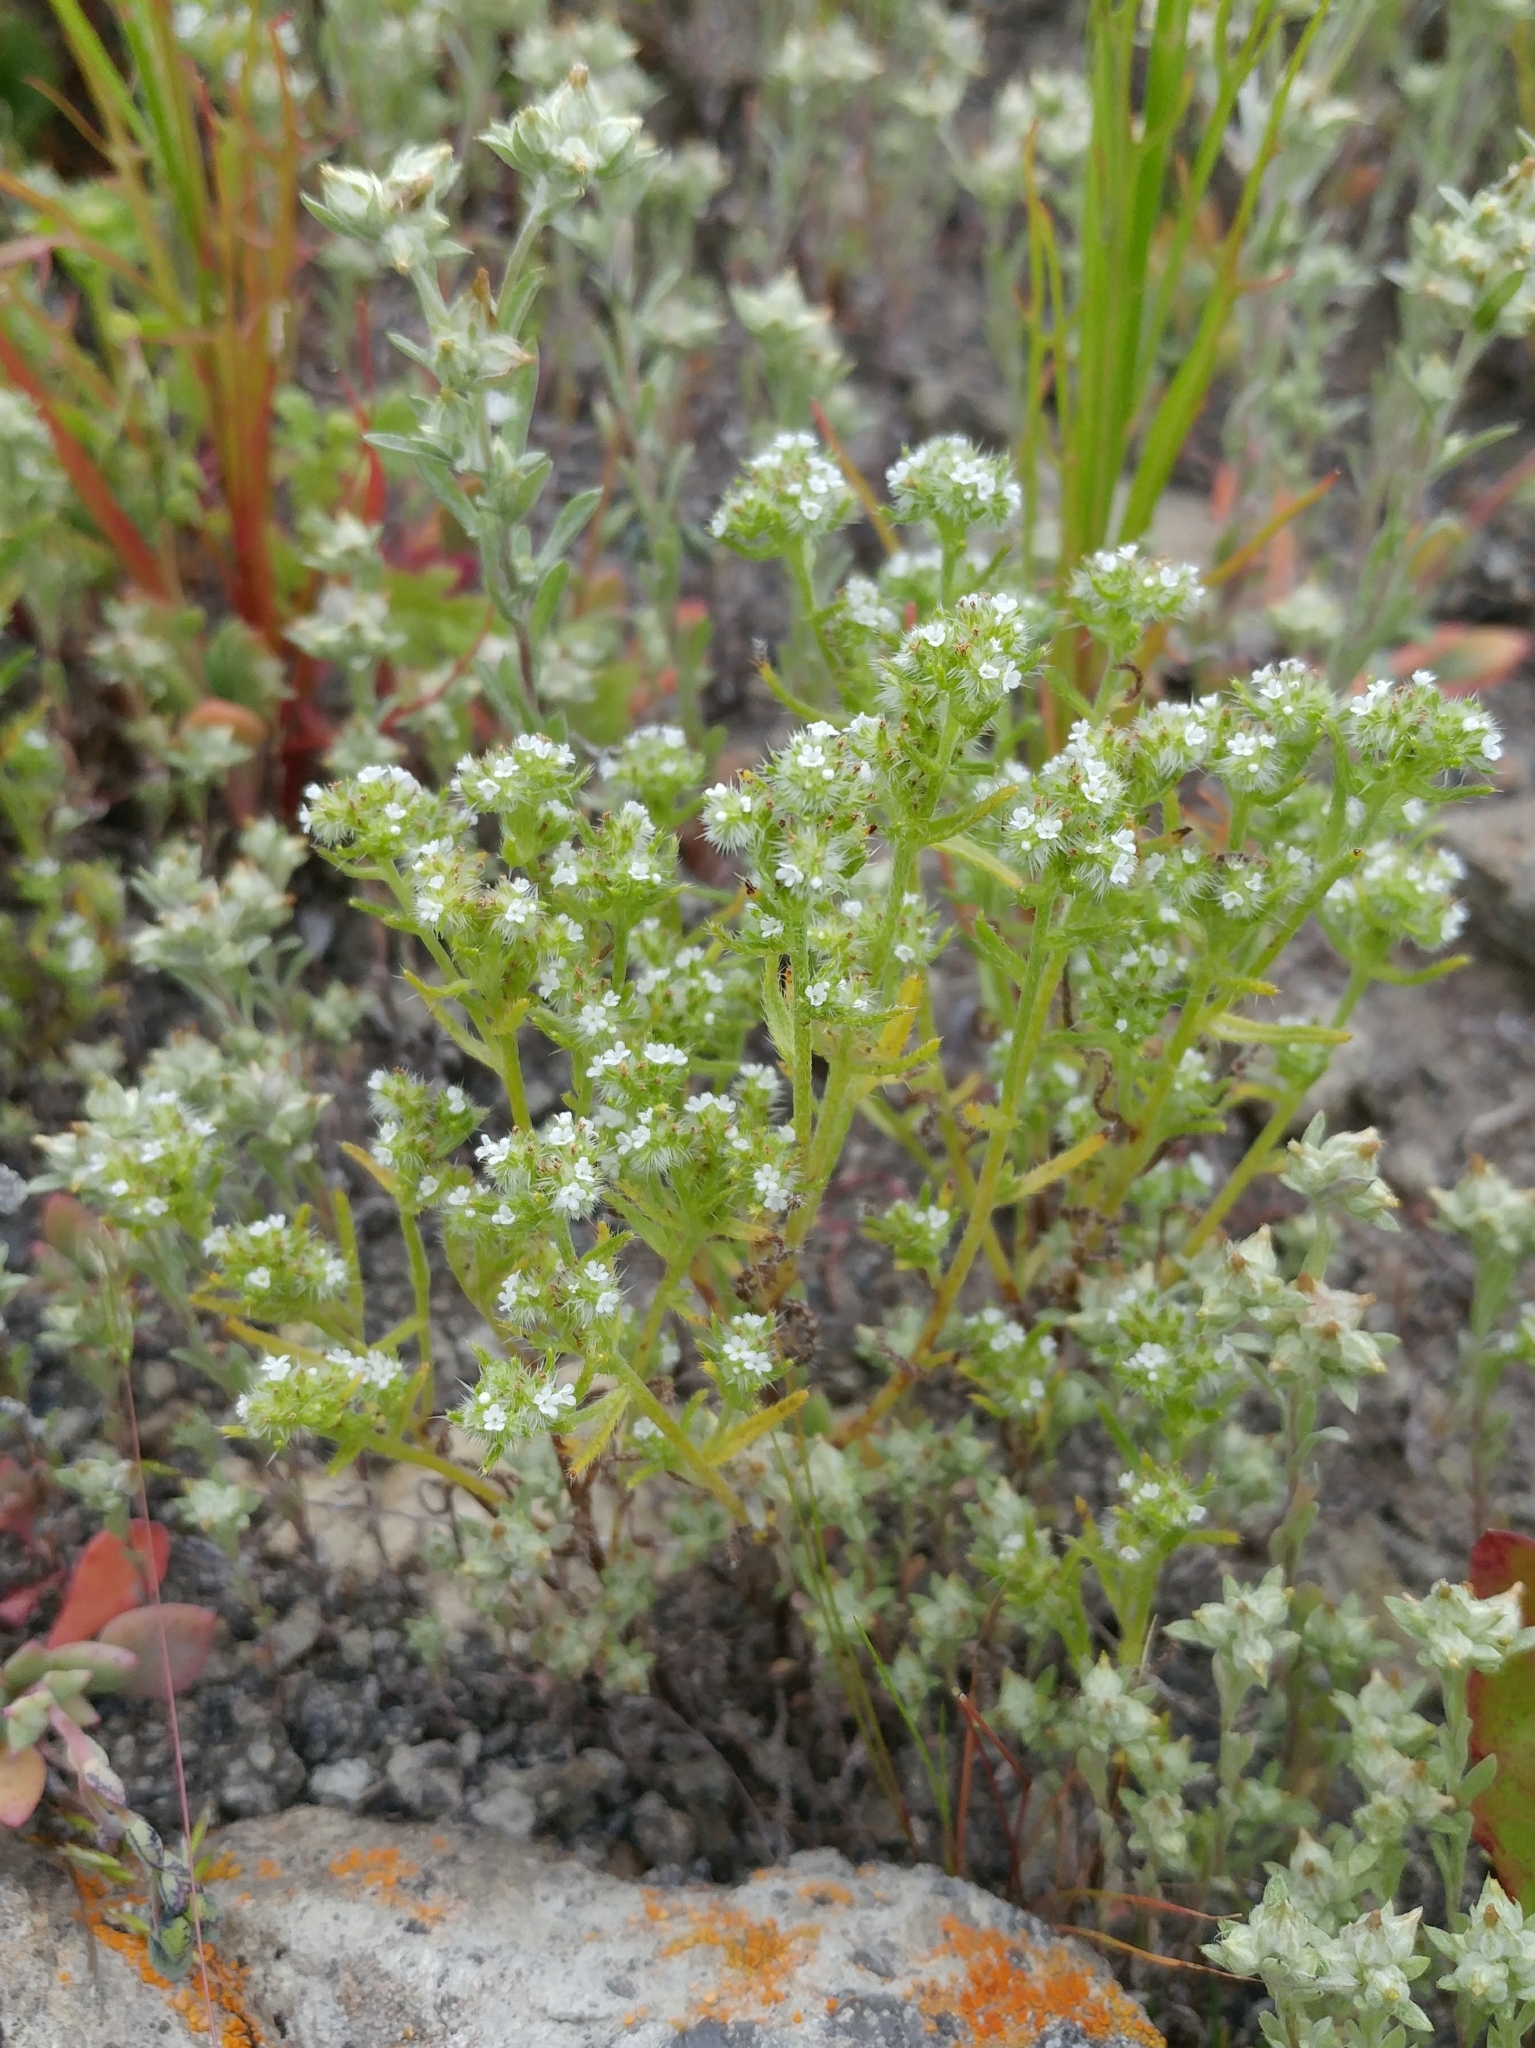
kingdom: Plantae
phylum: Tracheophyta
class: Magnoliopsida
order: Boraginales
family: Boraginaceae
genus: Cryptantha
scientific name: Cryptantha maritima
